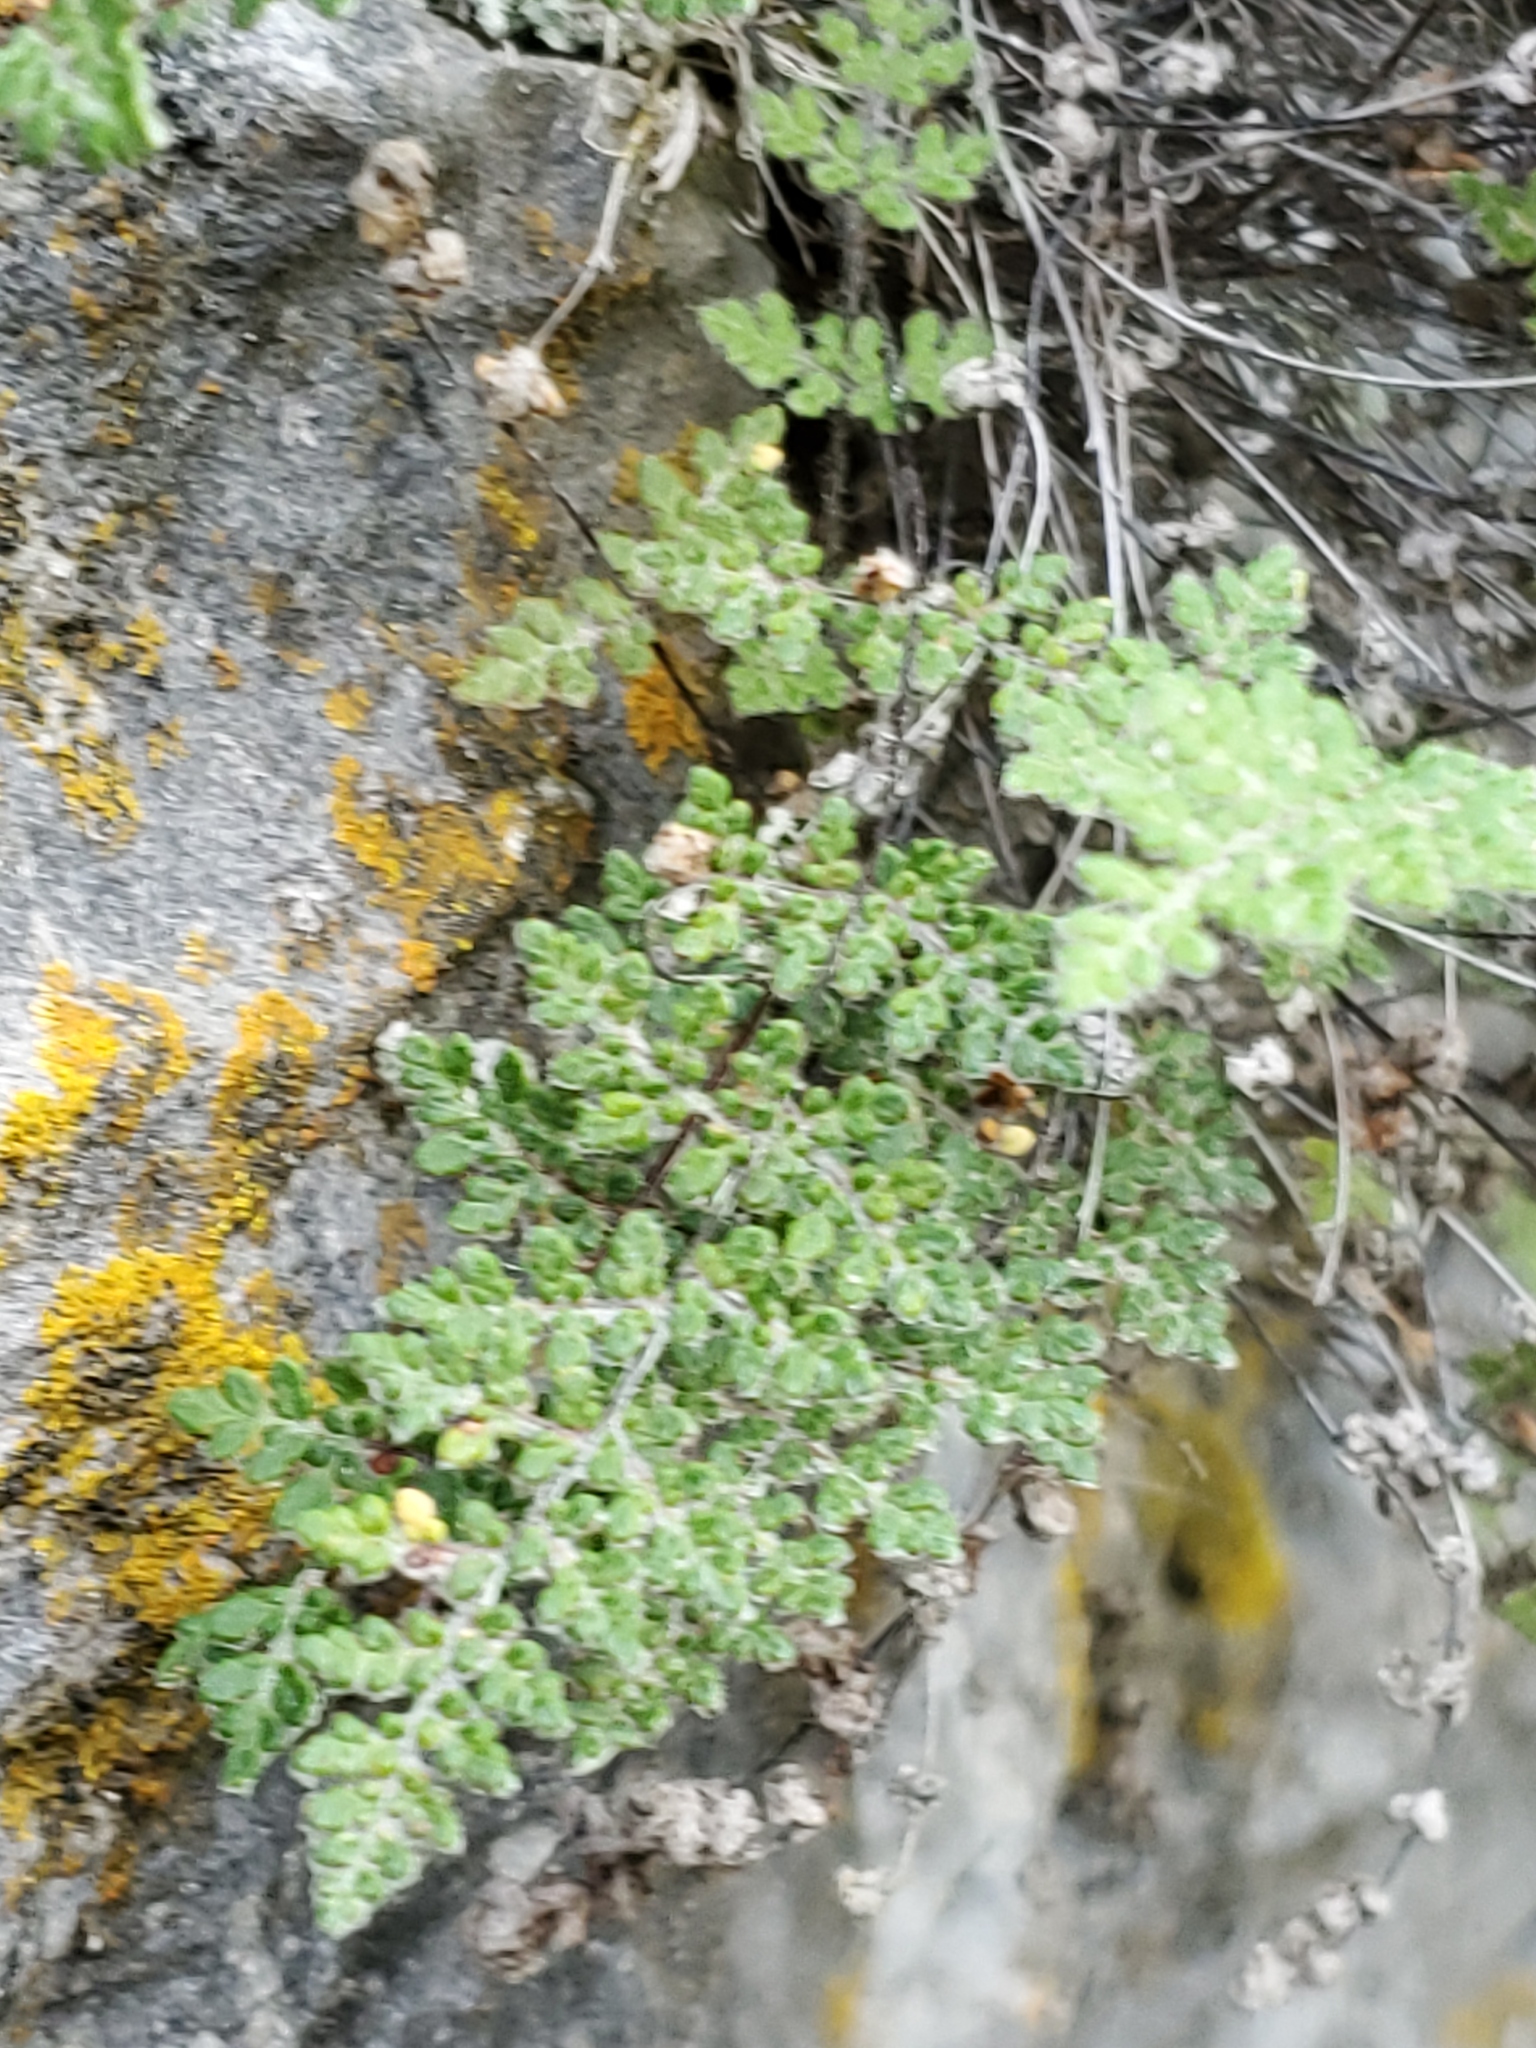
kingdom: Plantae
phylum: Tracheophyta
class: Polypodiopsida
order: Polypodiales
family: Pteridaceae
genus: Myriopteris
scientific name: Myriopteris gracilis
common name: Fee's lip fern
